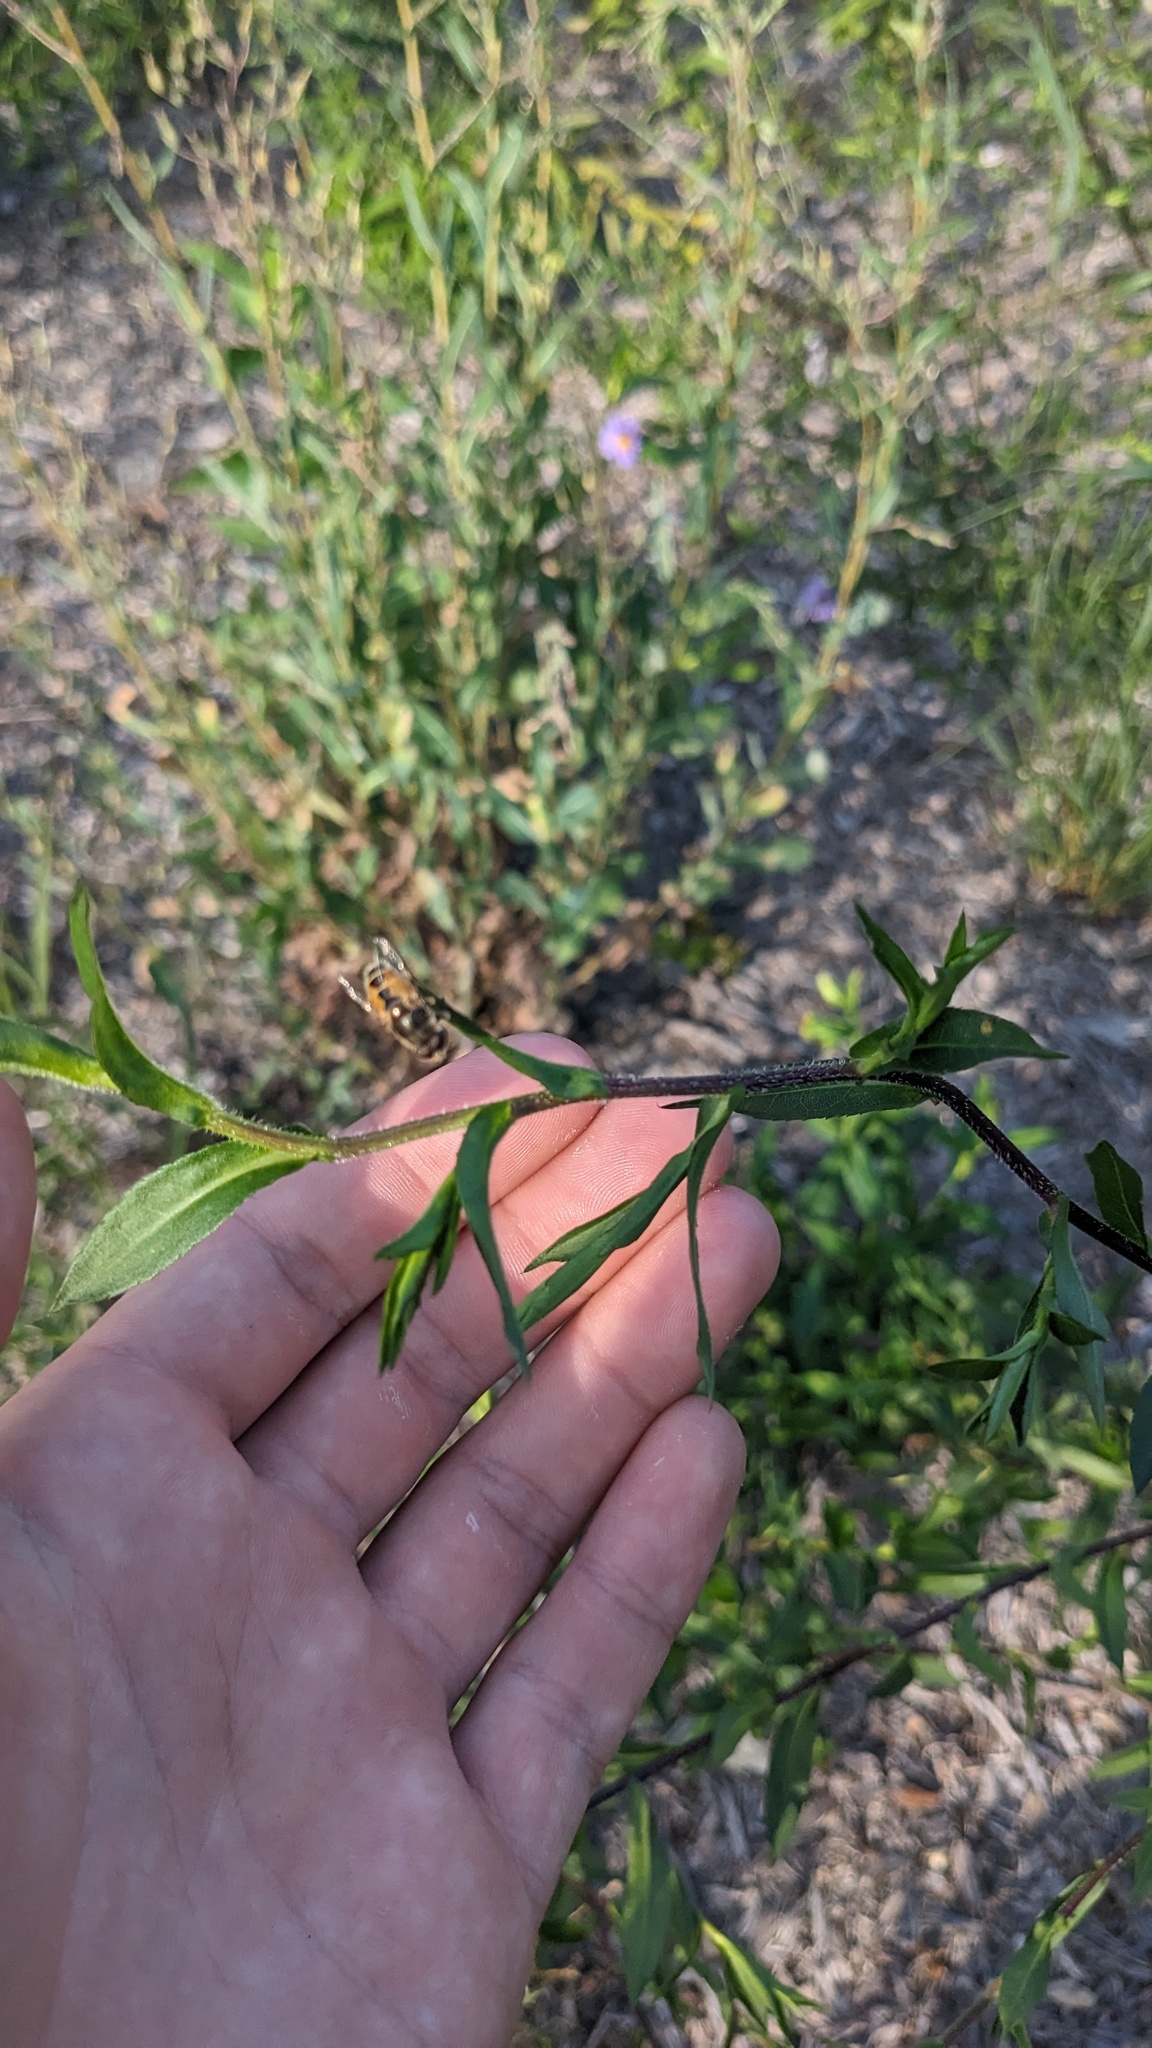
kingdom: Animalia
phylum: Arthropoda
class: Insecta
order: Diptera
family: Syrphidae
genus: Eristalis
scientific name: Eristalis arbustorum
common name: Hover fly
